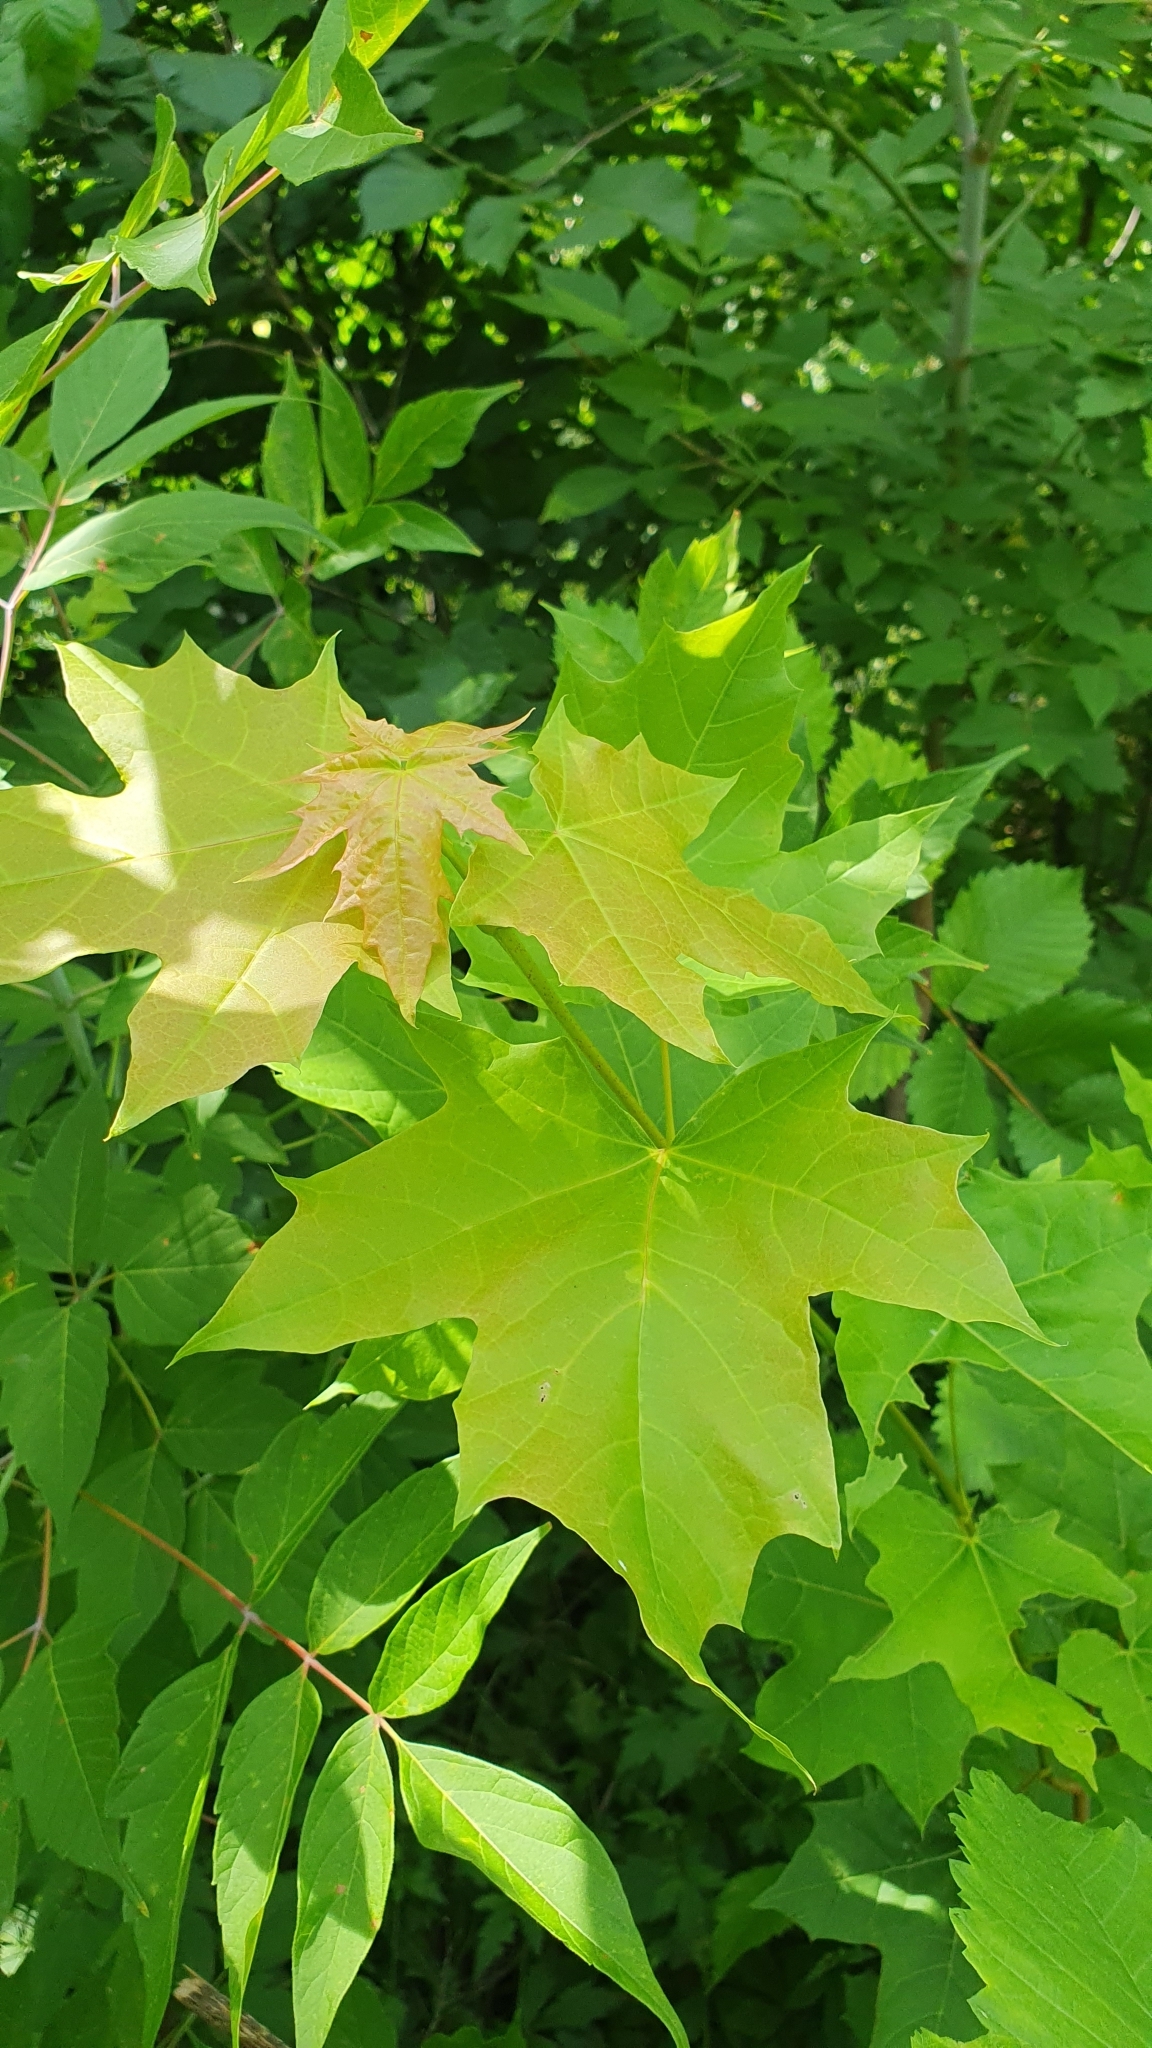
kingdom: Plantae
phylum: Tracheophyta
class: Magnoliopsida
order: Sapindales
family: Sapindaceae
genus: Acer
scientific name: Acer platanoides
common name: Norway maple
